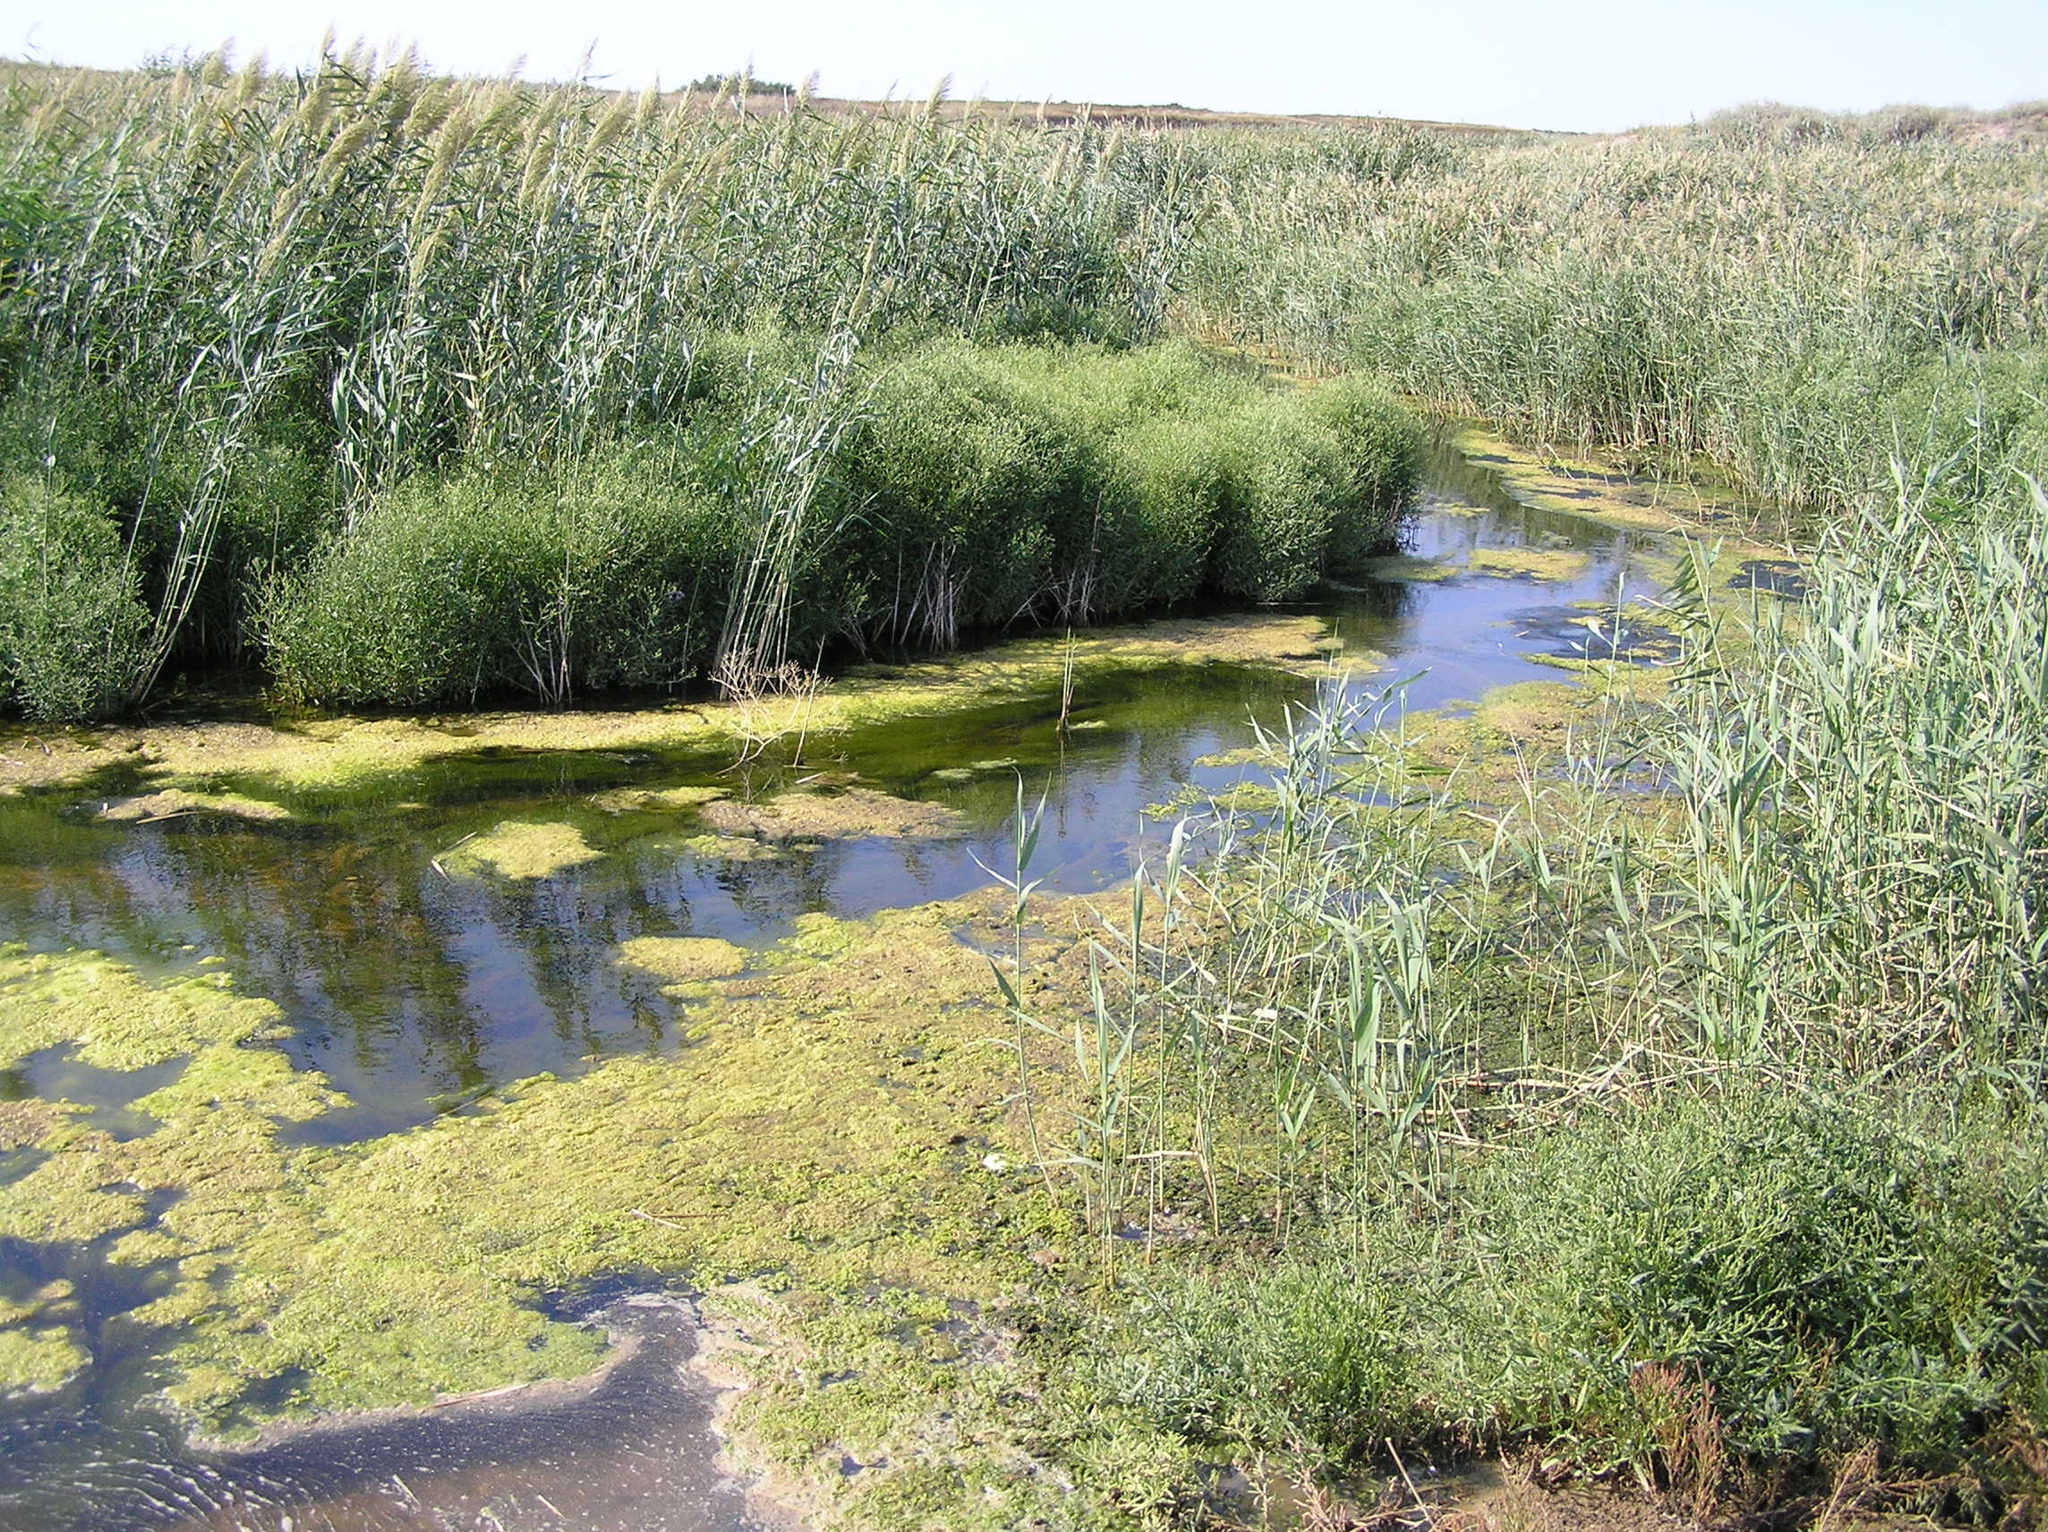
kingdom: Plantae
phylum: Tracheophyta
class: Liliopsida
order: Poales
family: Poaceae
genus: Phragmites
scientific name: Phragmites australis
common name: Common reed
